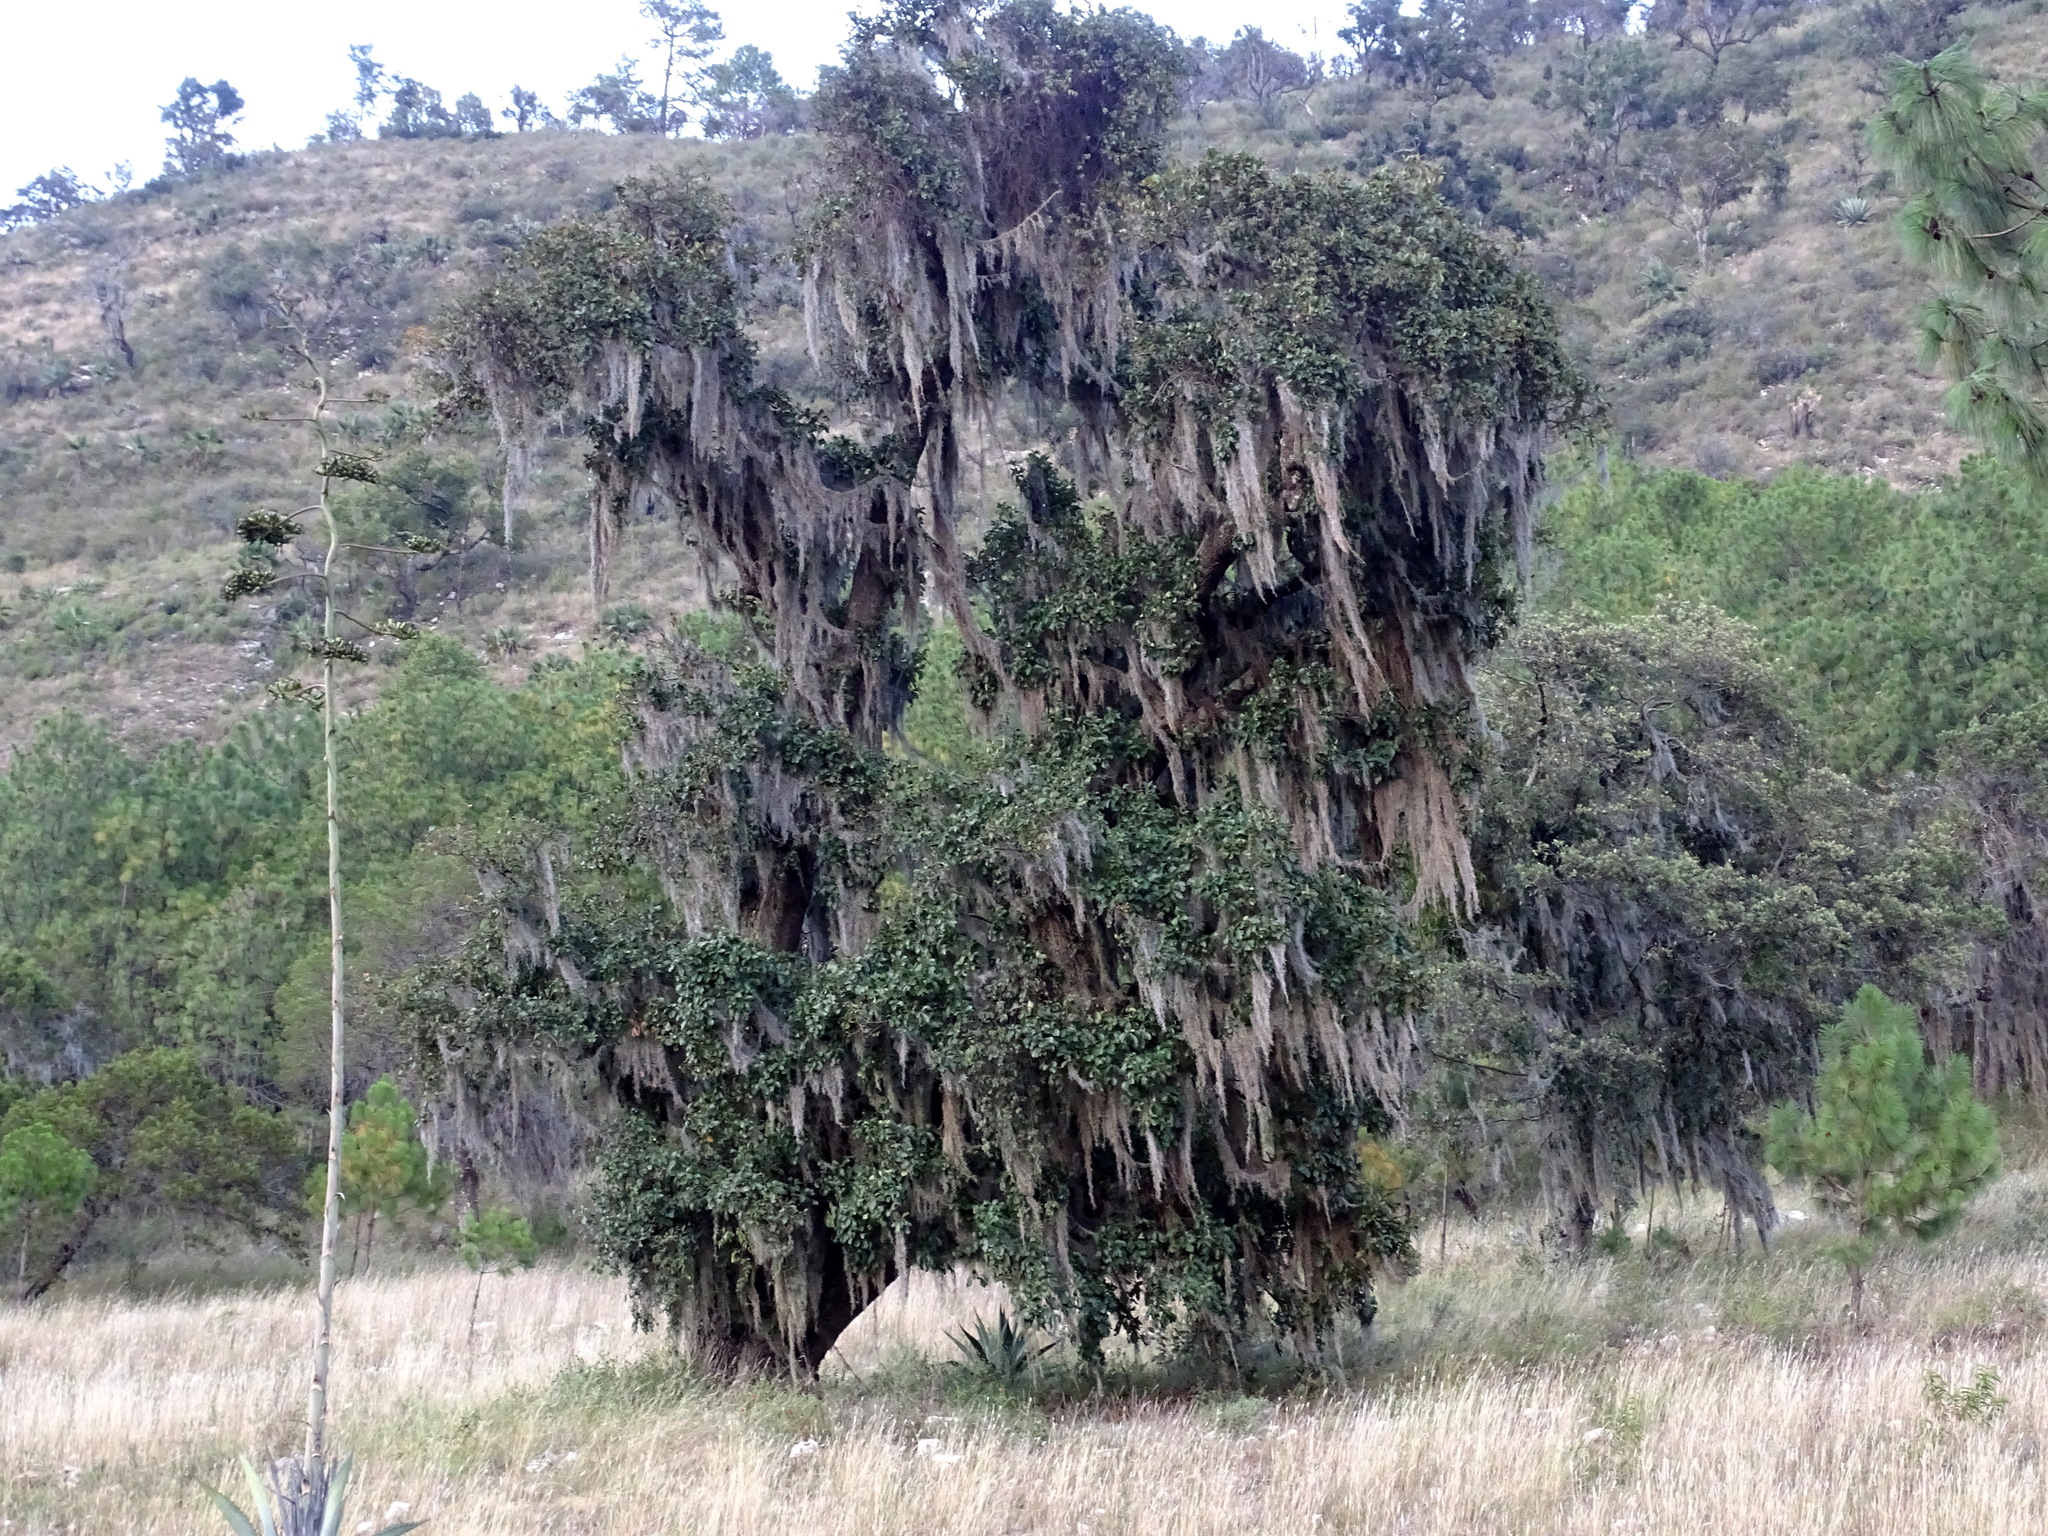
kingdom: Plantae
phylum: Tracheophyta
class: Liliopsida
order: Poales
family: Bromeliaceae
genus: Tillandsia
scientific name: Tillandsia usneoides
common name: Spanish moss
